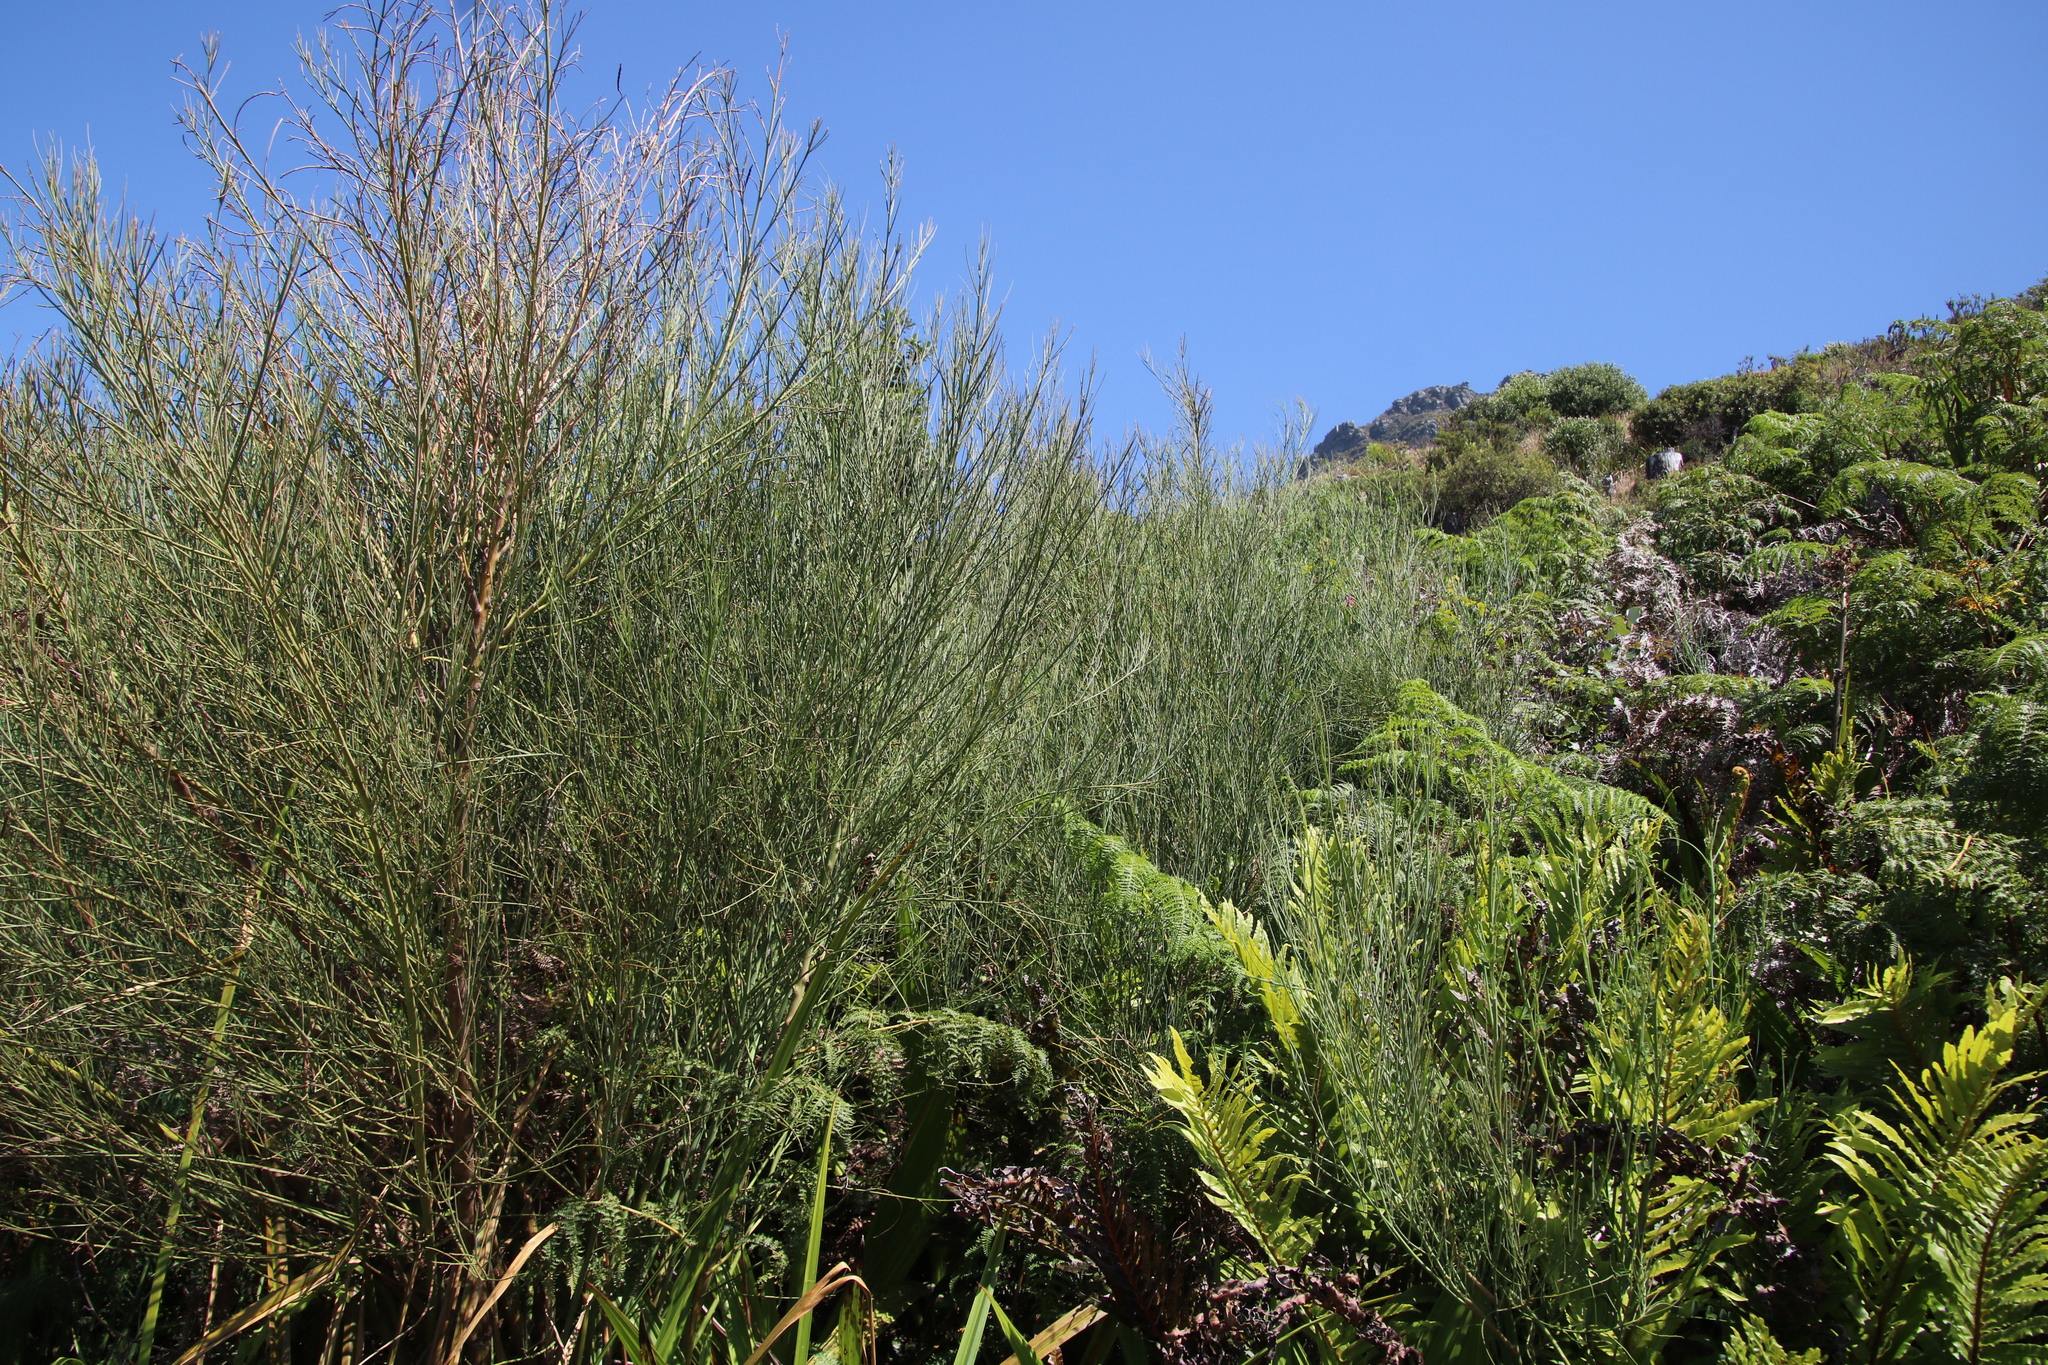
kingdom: Plantae
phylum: Tracheophyta
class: Magnoliopsida
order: Fabales
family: Fabaceae
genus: Indigofera
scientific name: Indigofera filifolia
